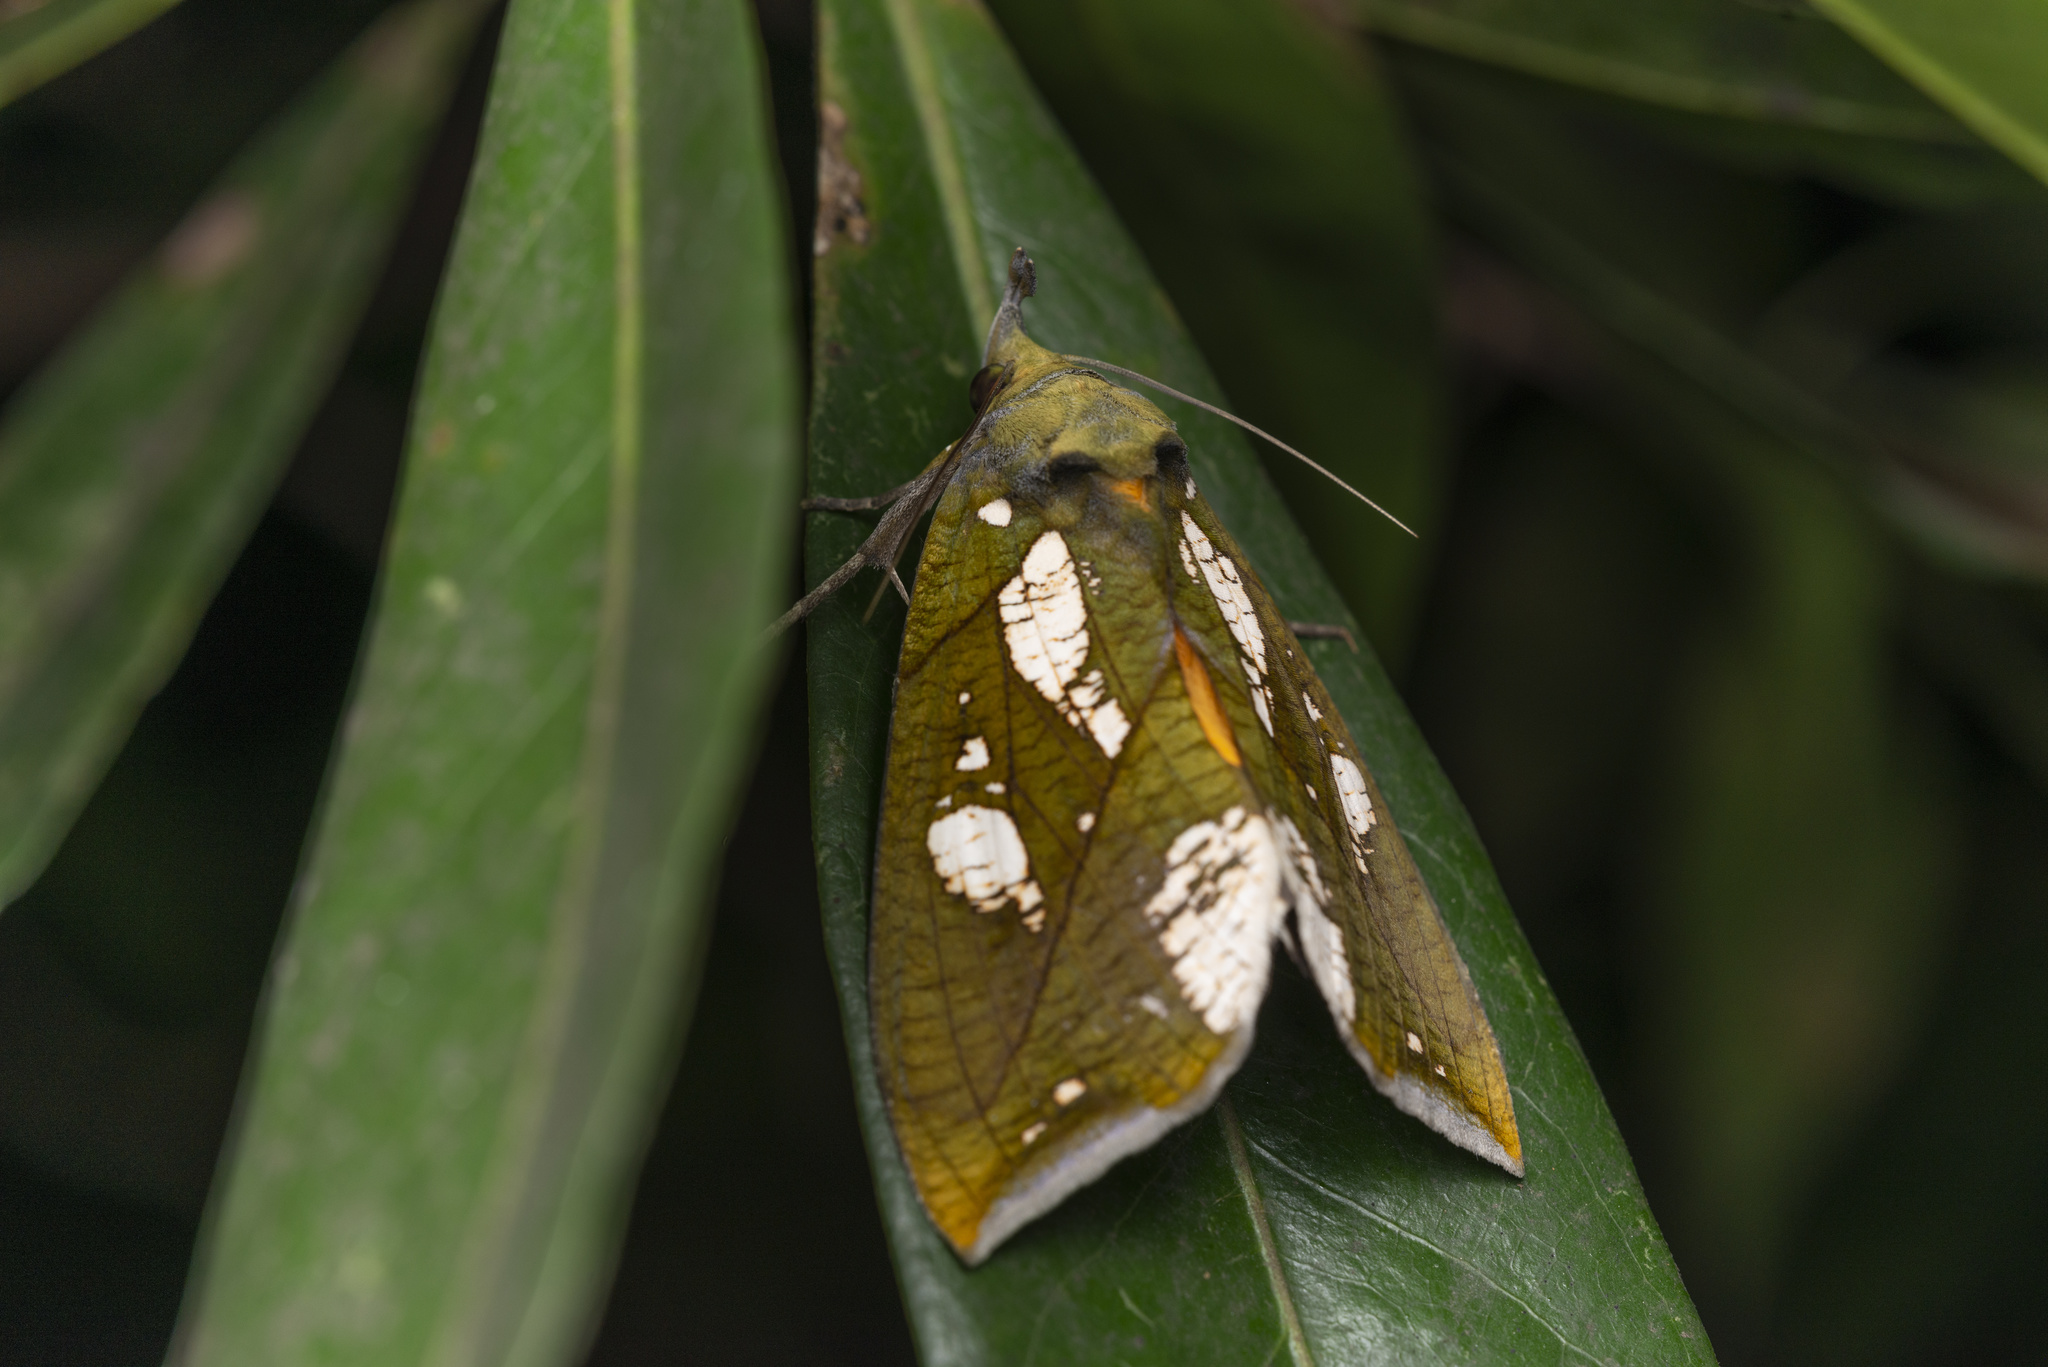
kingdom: Animalia
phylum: Arthropoda
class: Insecta
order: Lepidoptera
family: Erebidae
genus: Eudocima
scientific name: Eudocima hypermnestra
